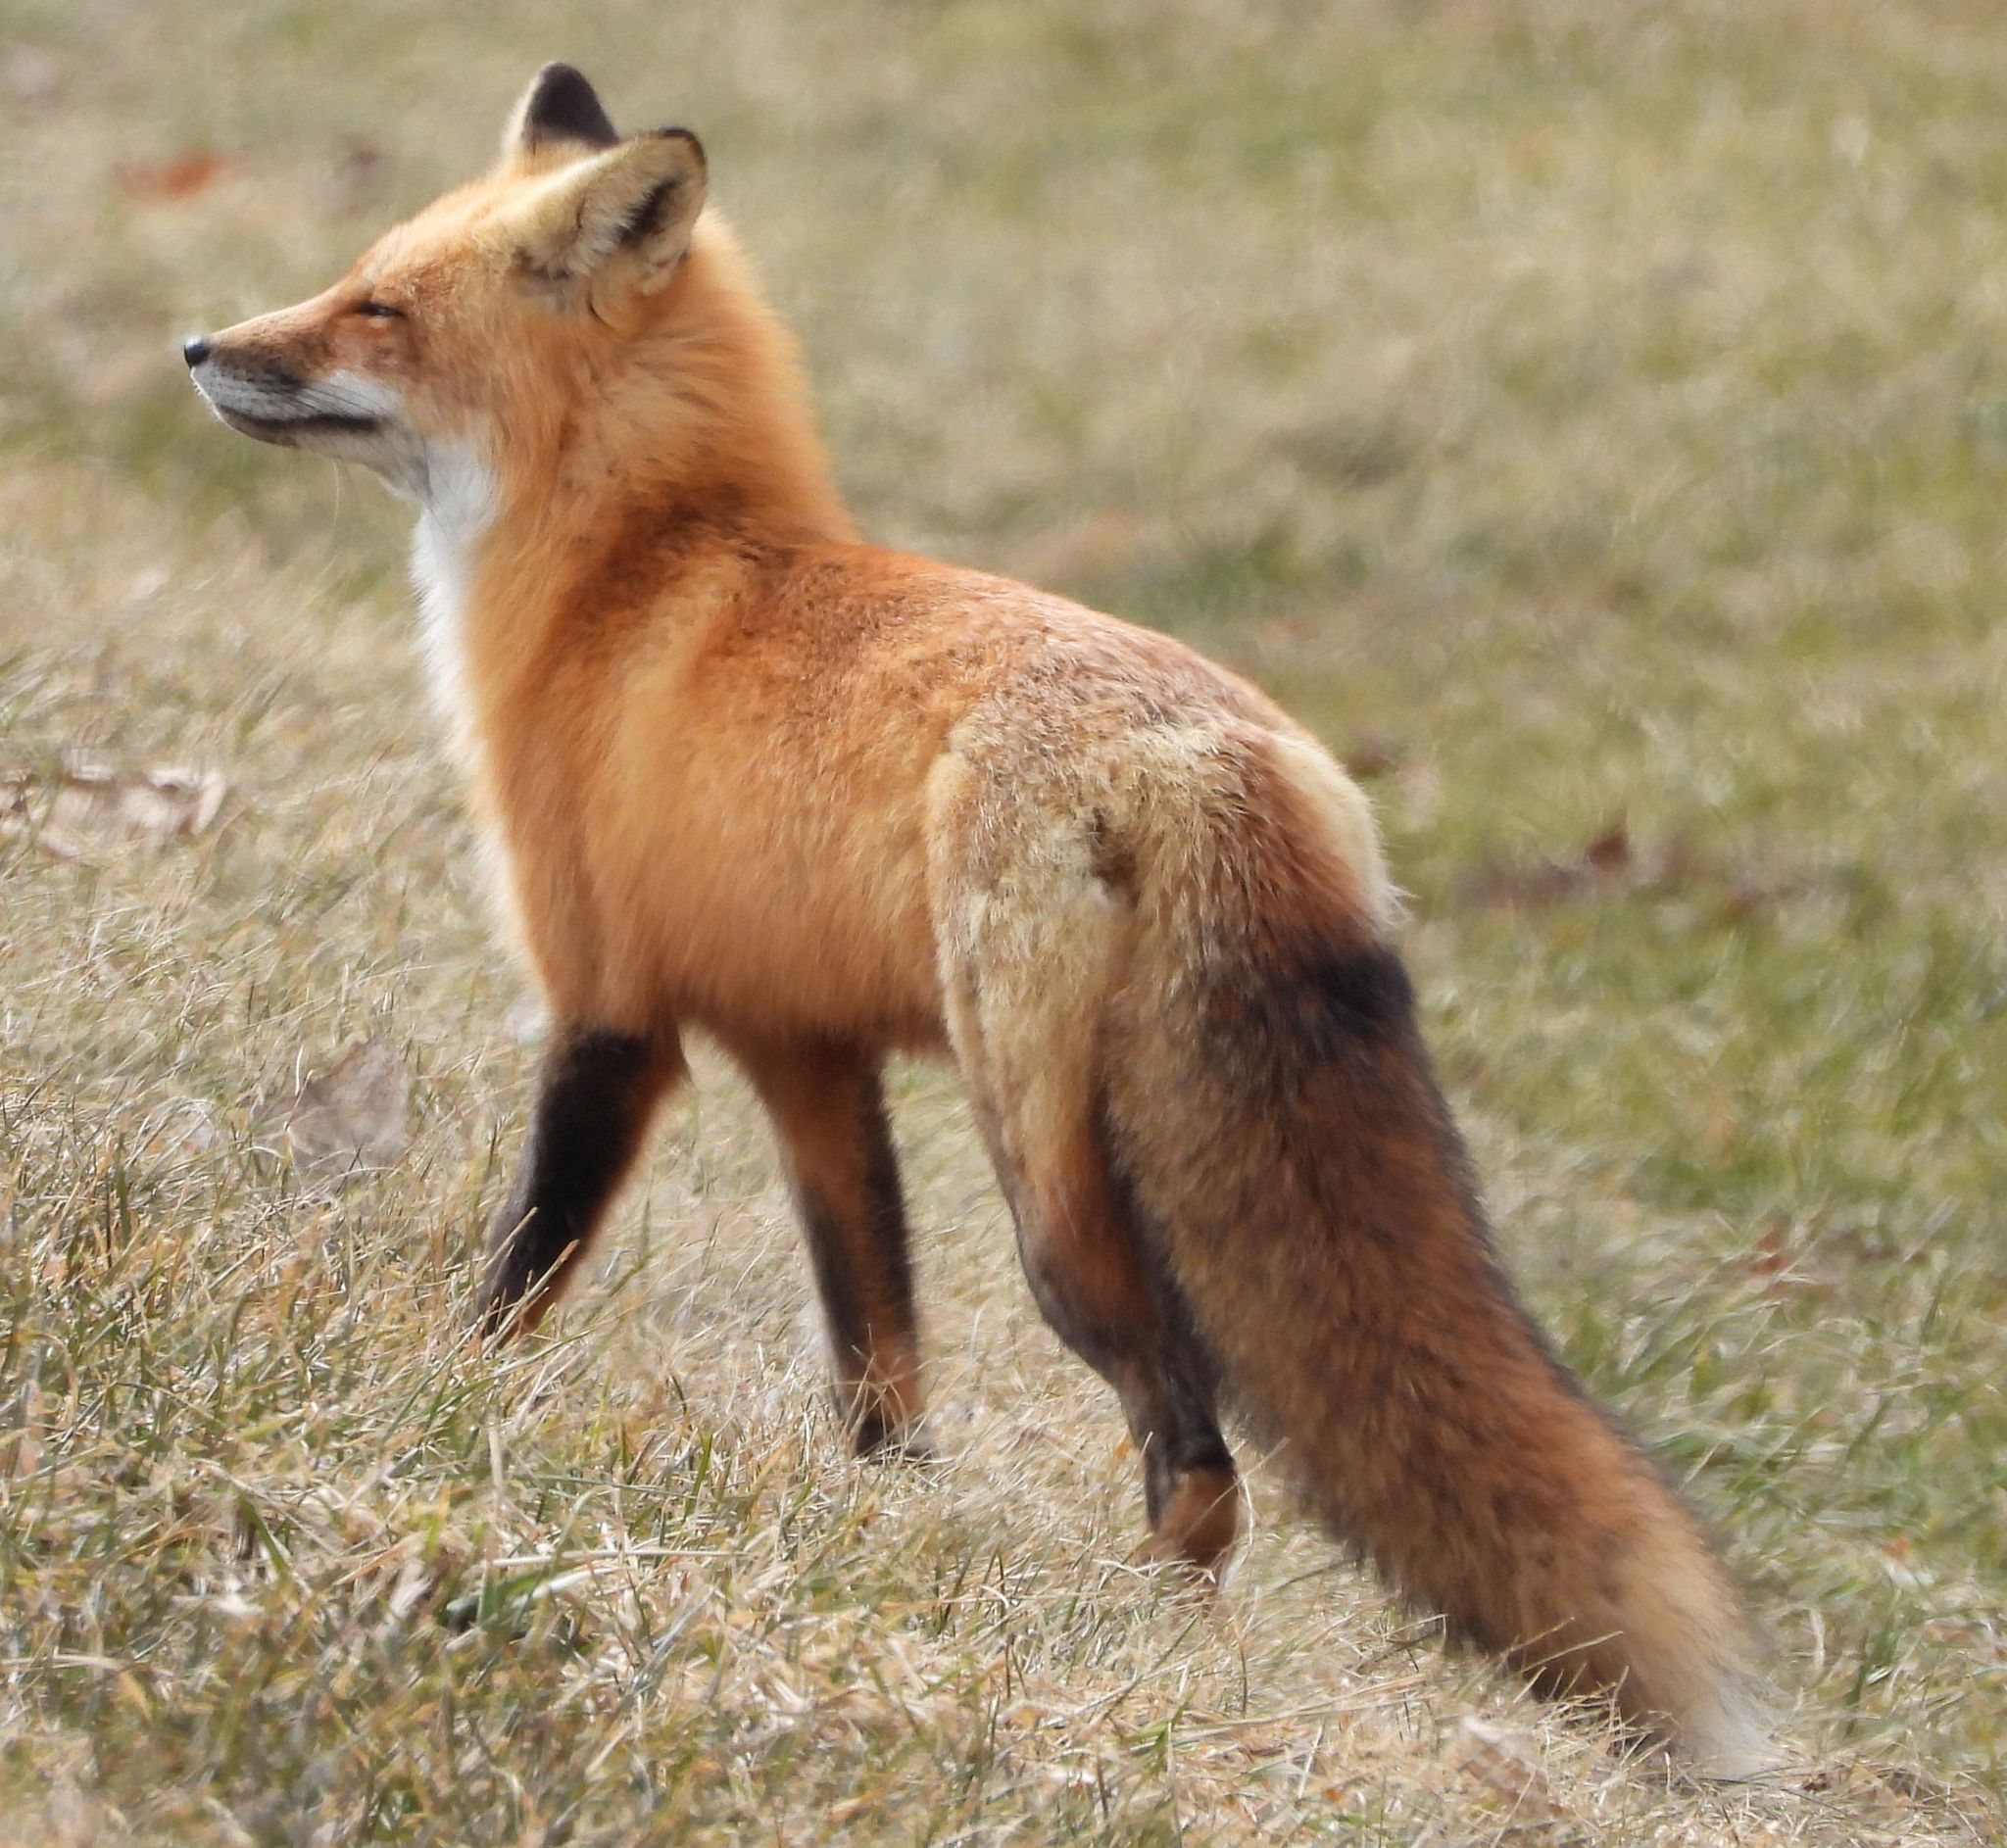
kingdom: Animalia
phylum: Chordata
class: Mammalia
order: Carnivora
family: Canidae
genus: Vulpes
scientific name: Vulpes vulpes
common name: Red fox
